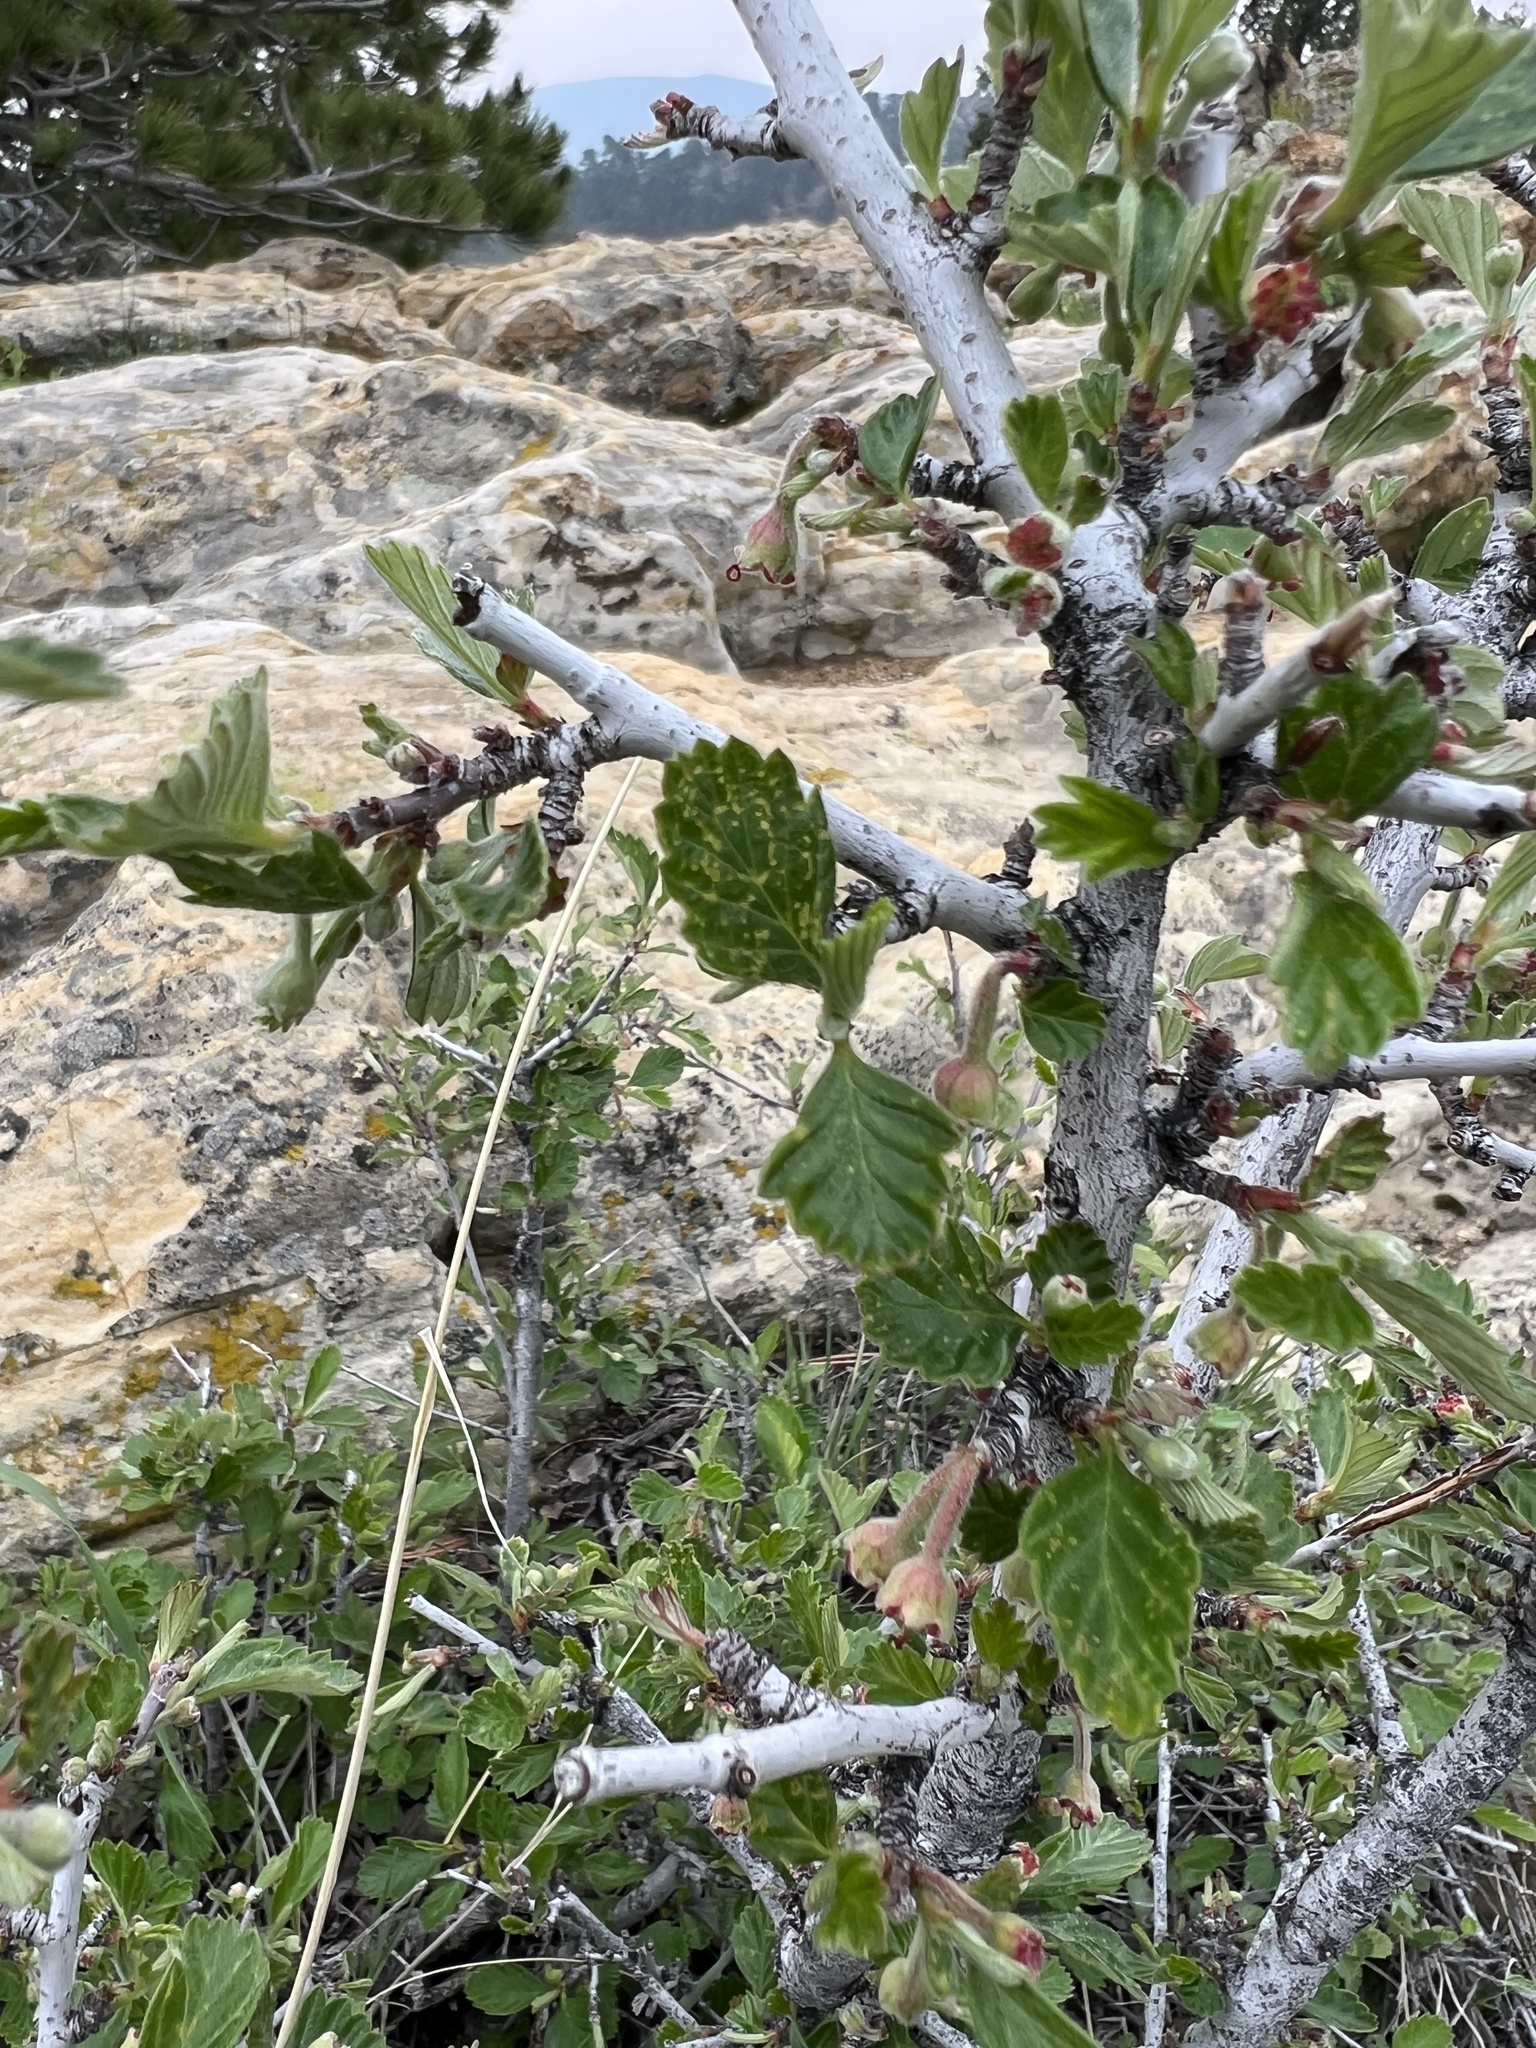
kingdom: Plantae
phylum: Tracheophyta
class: Magnoliopsida
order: Rosales
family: Rosaceae
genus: Cercocarpus
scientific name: Cercocarpus montanus
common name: Alder-leaf cercocarpus
